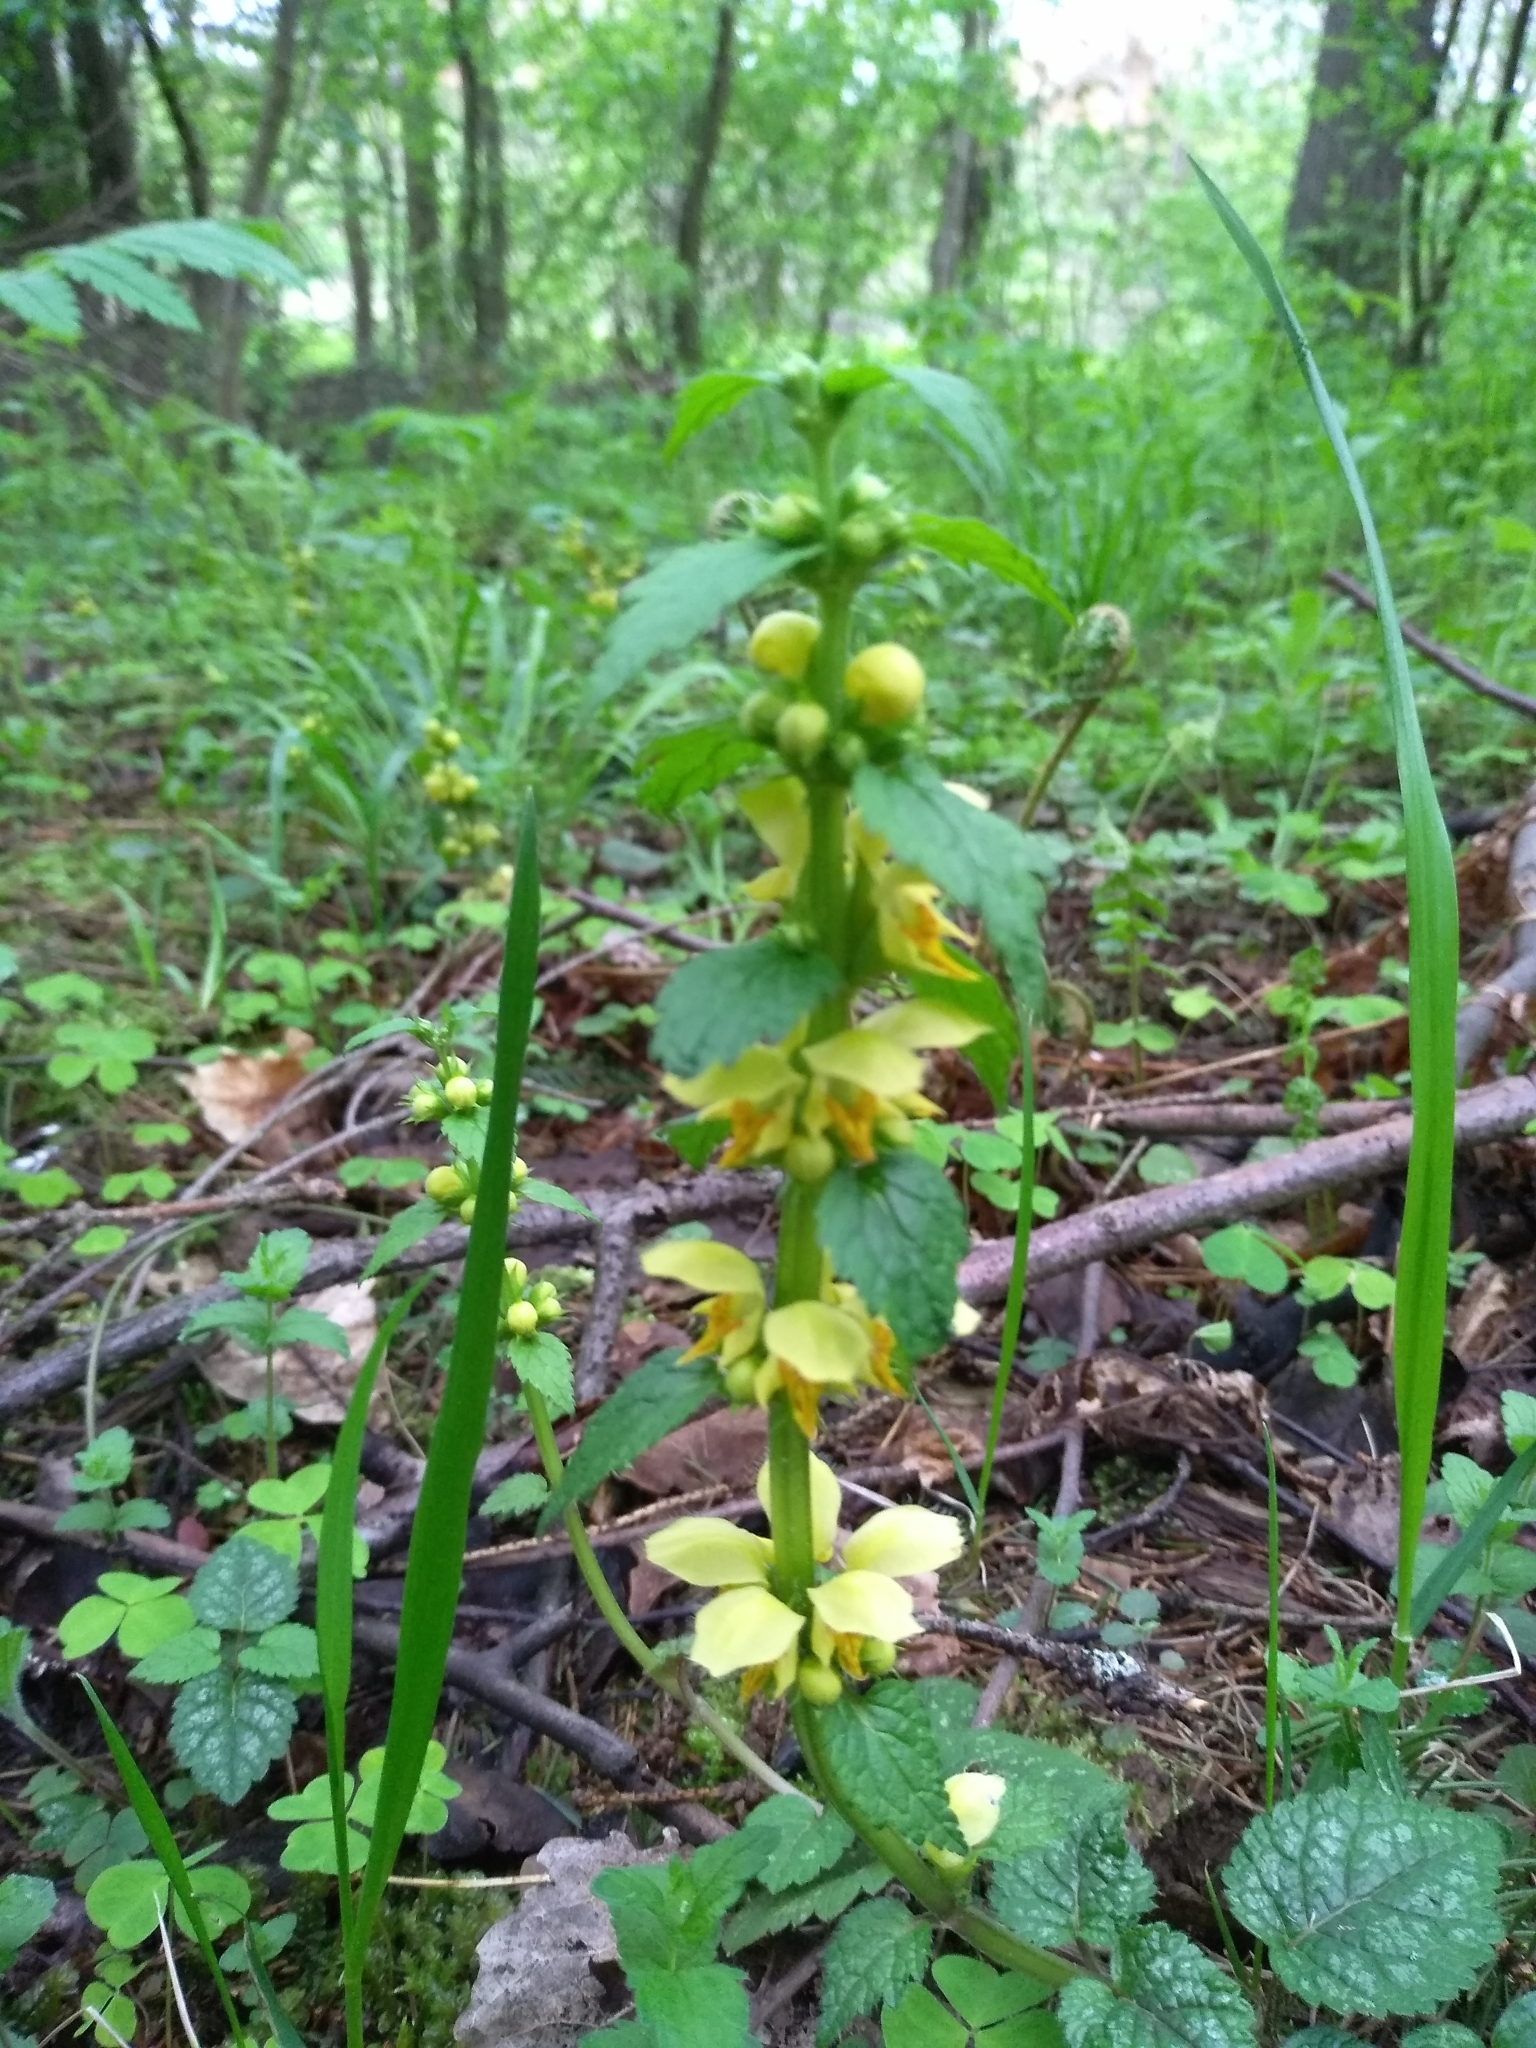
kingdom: Plantae
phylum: Tracheophyta
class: Magnoliopsida
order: Lamiales
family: Lamiaceae
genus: Lamium
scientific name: Lamium galeobdolon
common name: Yellow archangel
